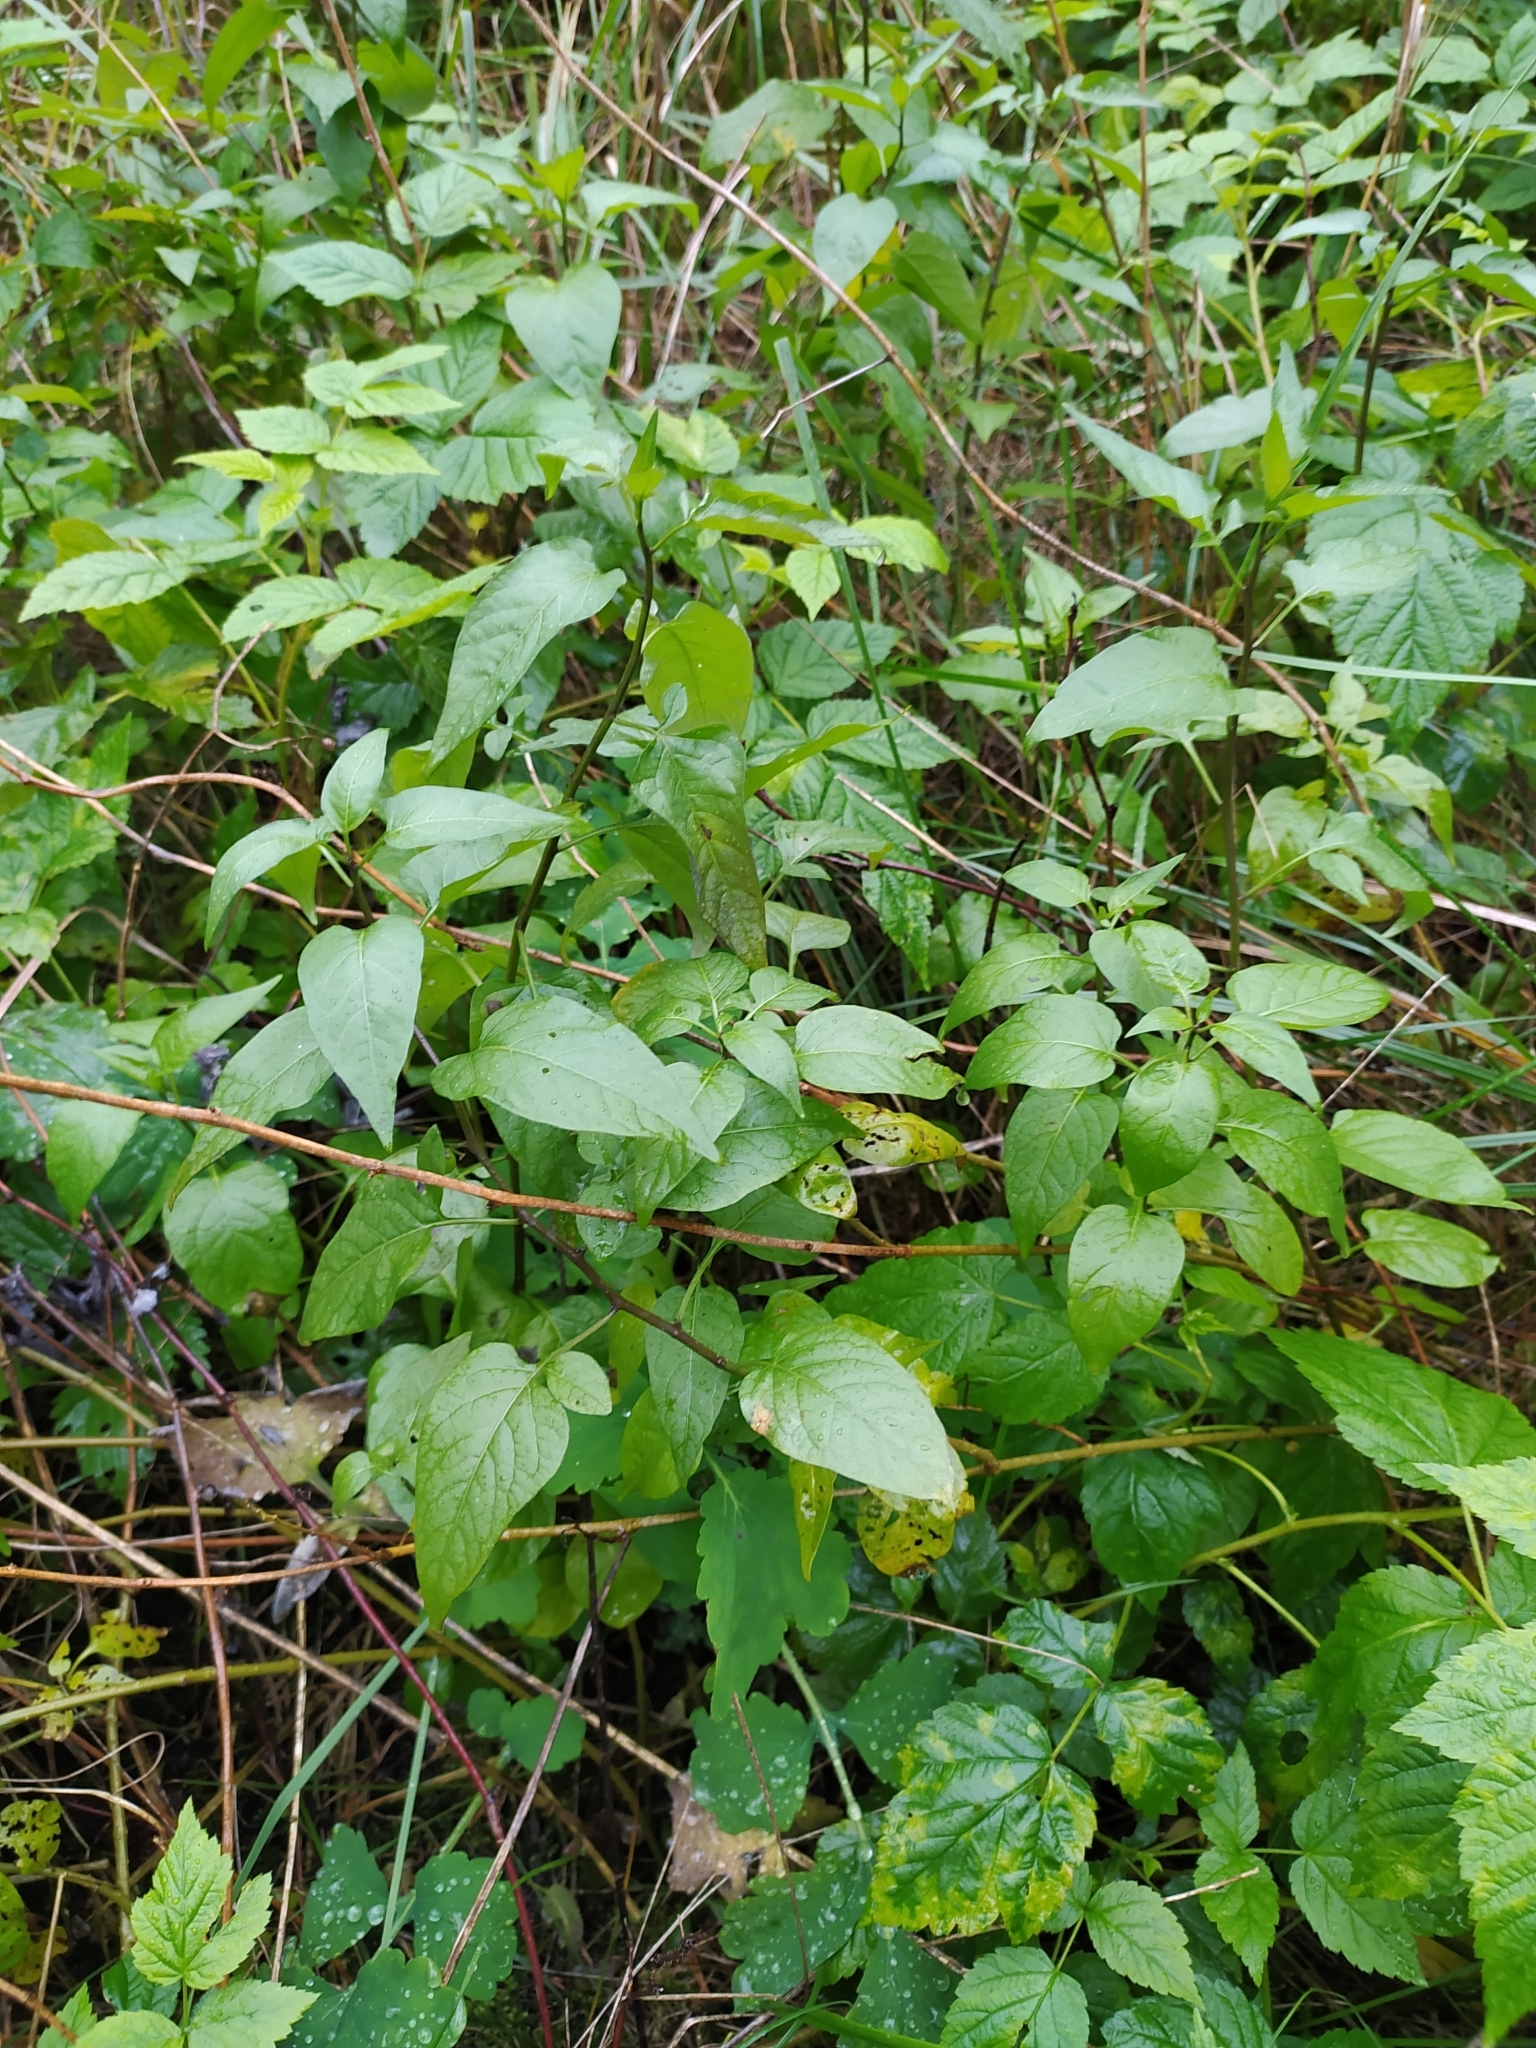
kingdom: Plantae
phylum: Tracheophyta
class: Magnoliopsida
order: Solanales
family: Solanaceae
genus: Solanum
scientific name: Solanum dulcamara
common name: Climbing nightshade
